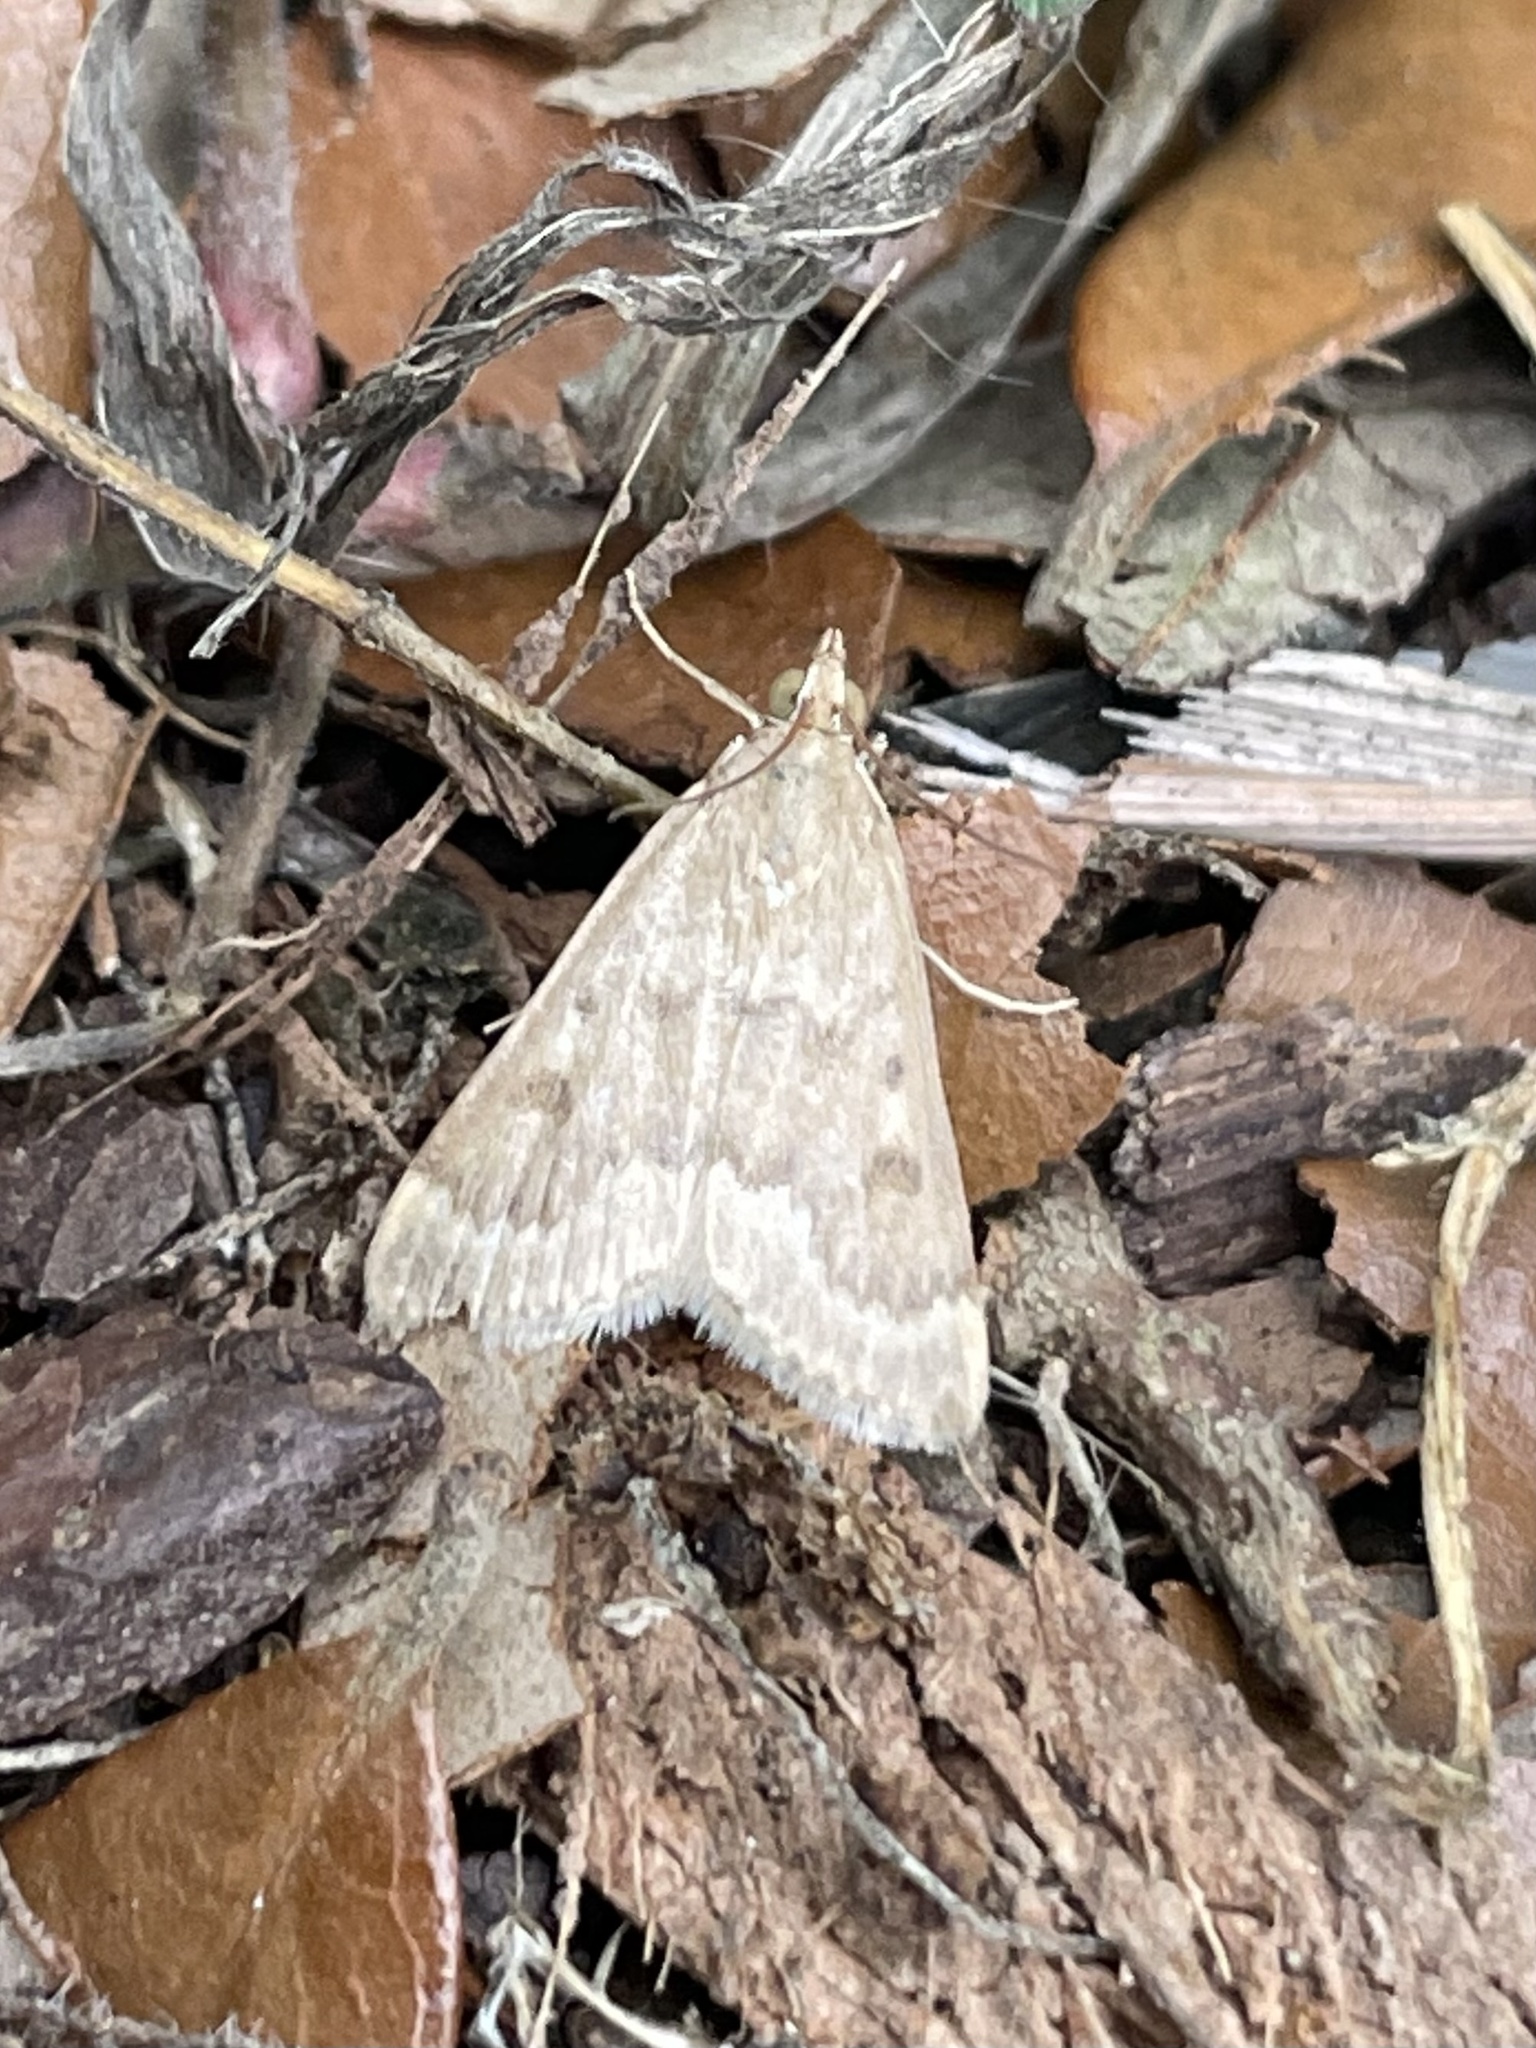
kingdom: Animalia
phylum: Arthropoda
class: Insecta
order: Lepidoptera
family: Crambidae
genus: Achyra
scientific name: Achyra rantalis
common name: Garden webworm
